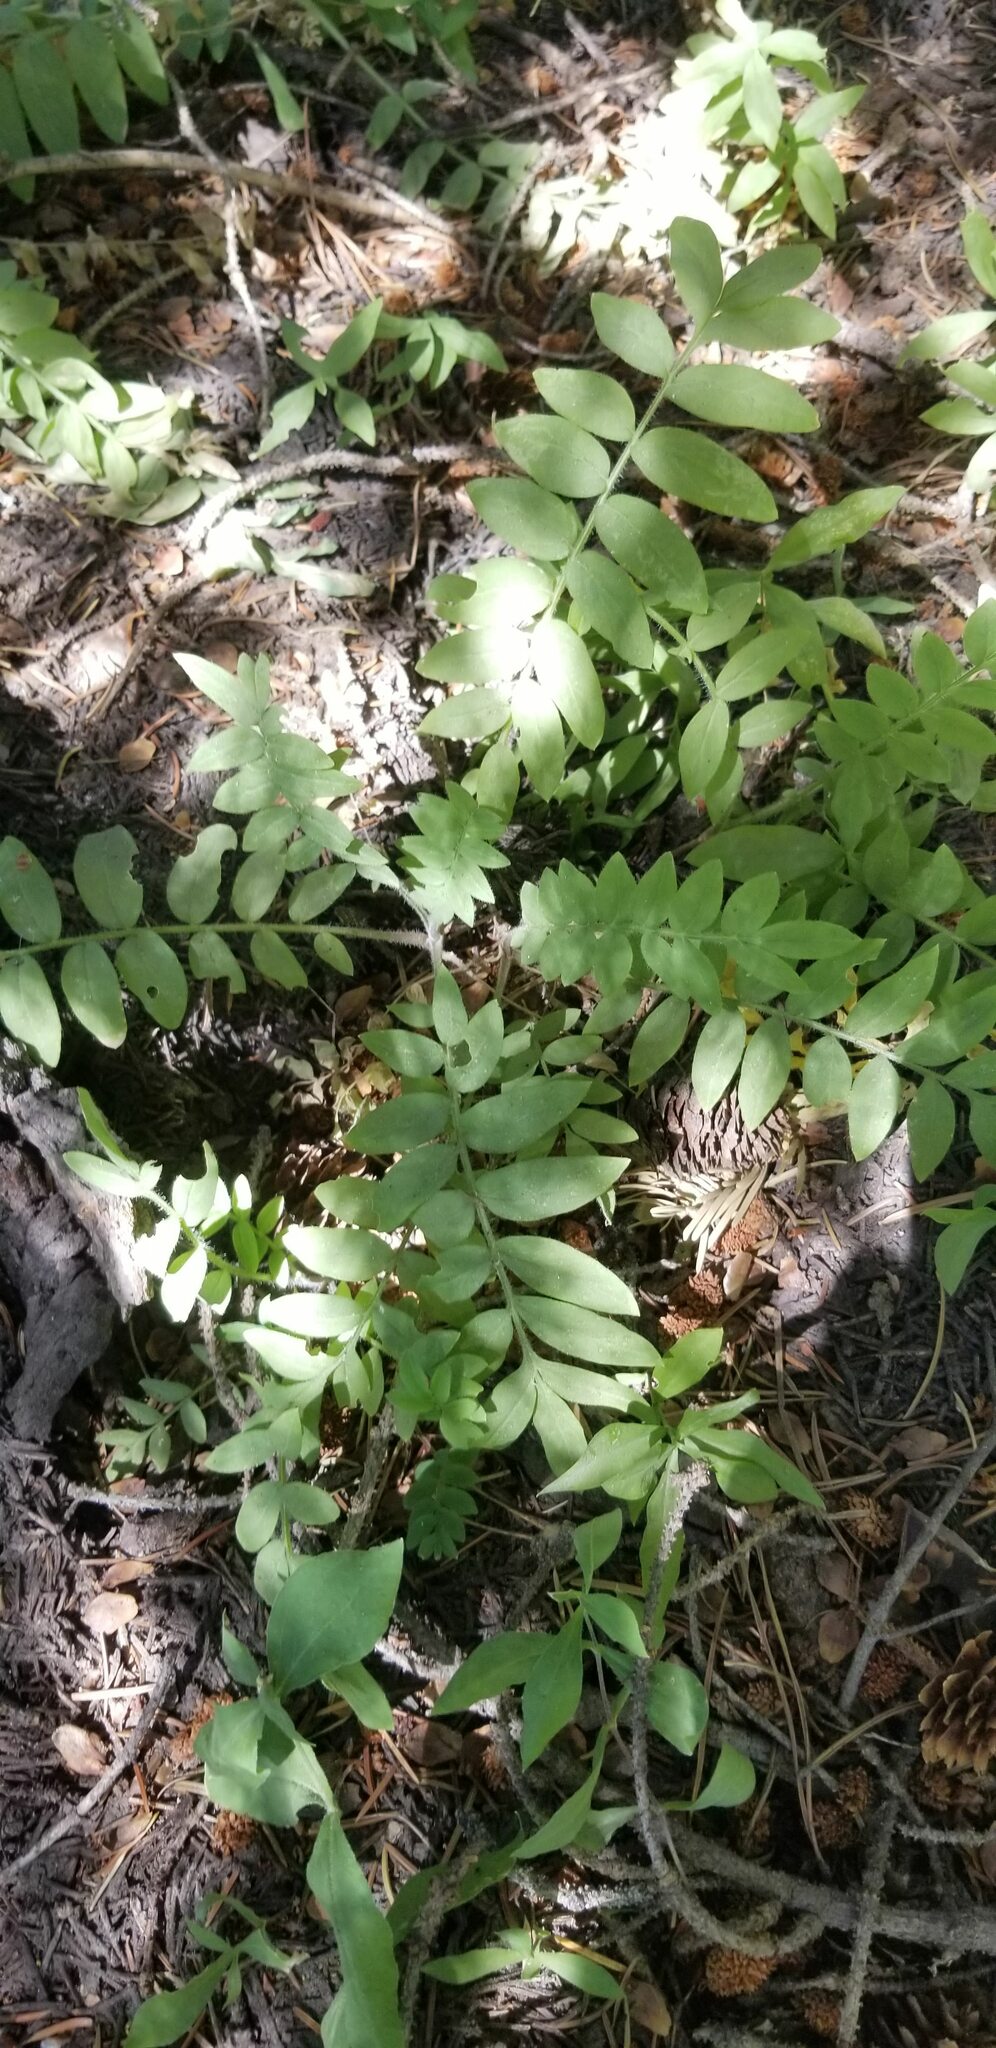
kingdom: Plantae
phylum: Tracheophyta
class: Magnoliopsida
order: Ericales
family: Polemoniaceae
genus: Polemonium
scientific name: Polemonium californicum
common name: California jacob's ladder
